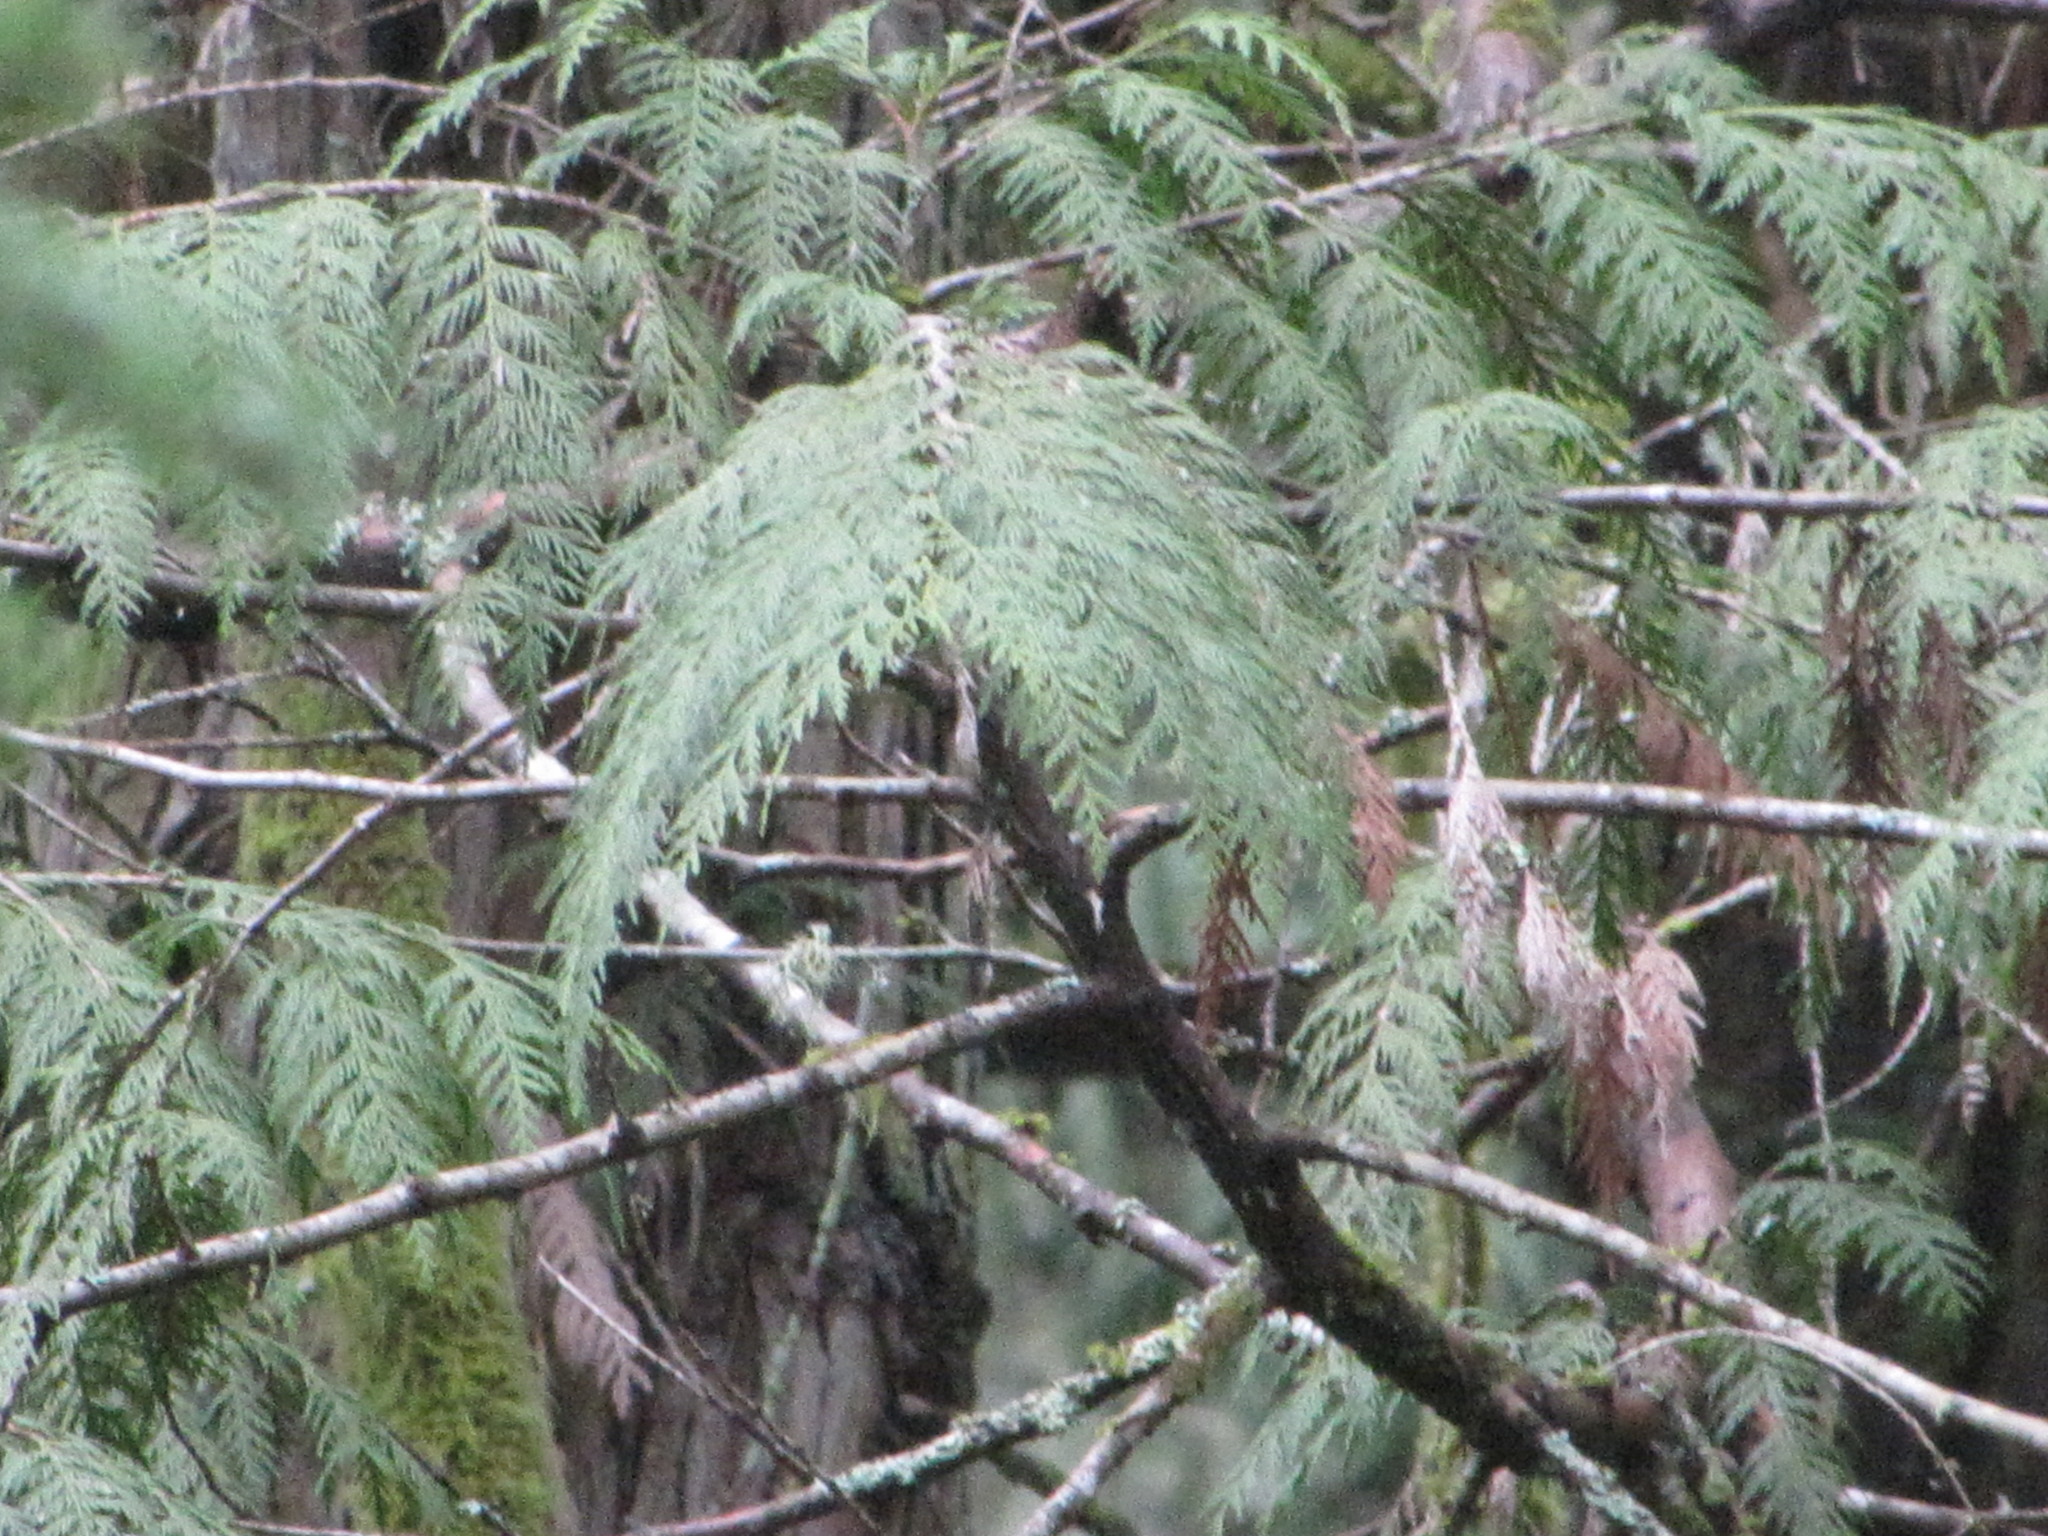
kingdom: Plantae
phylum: Tracheophyta
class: Pinopsida
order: Pinales
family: Cupressaceae
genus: Thuja
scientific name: Thuja plicata
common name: Western red-cedar
